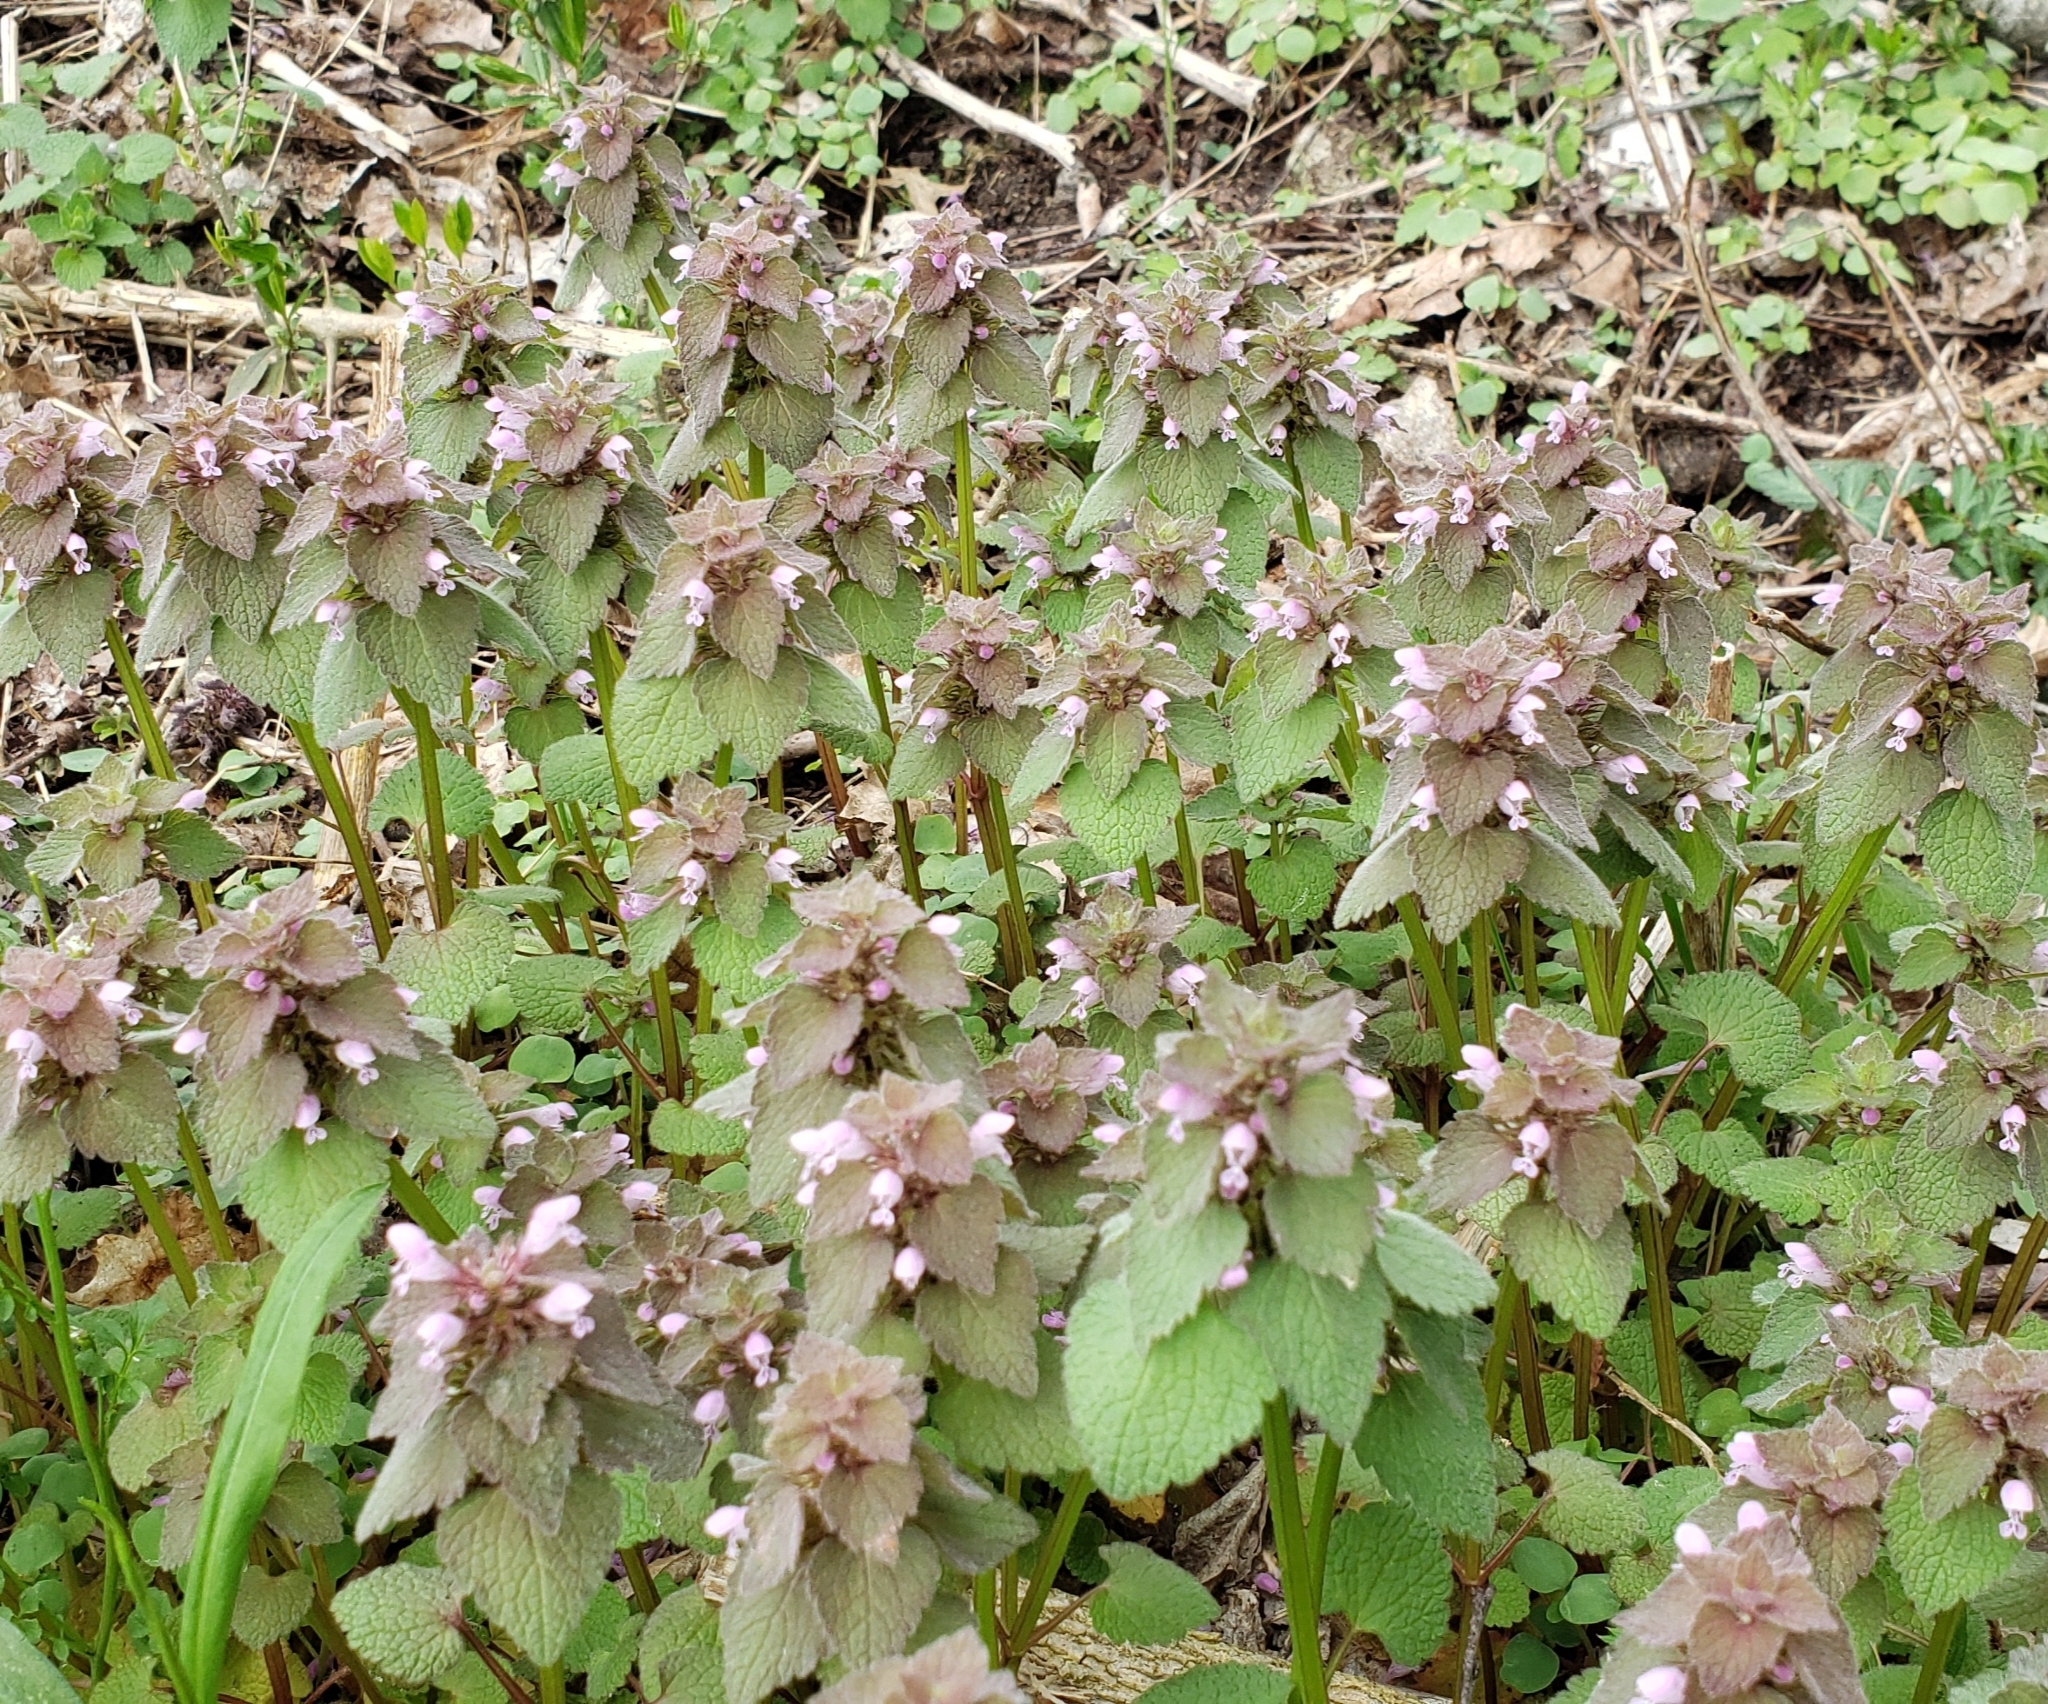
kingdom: Plantae
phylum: Tracheophyta
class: Magnoliopsida
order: Lamiales
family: Lamiaceae
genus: Lamium
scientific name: Lamium purpureum
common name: Red dead-nettle
